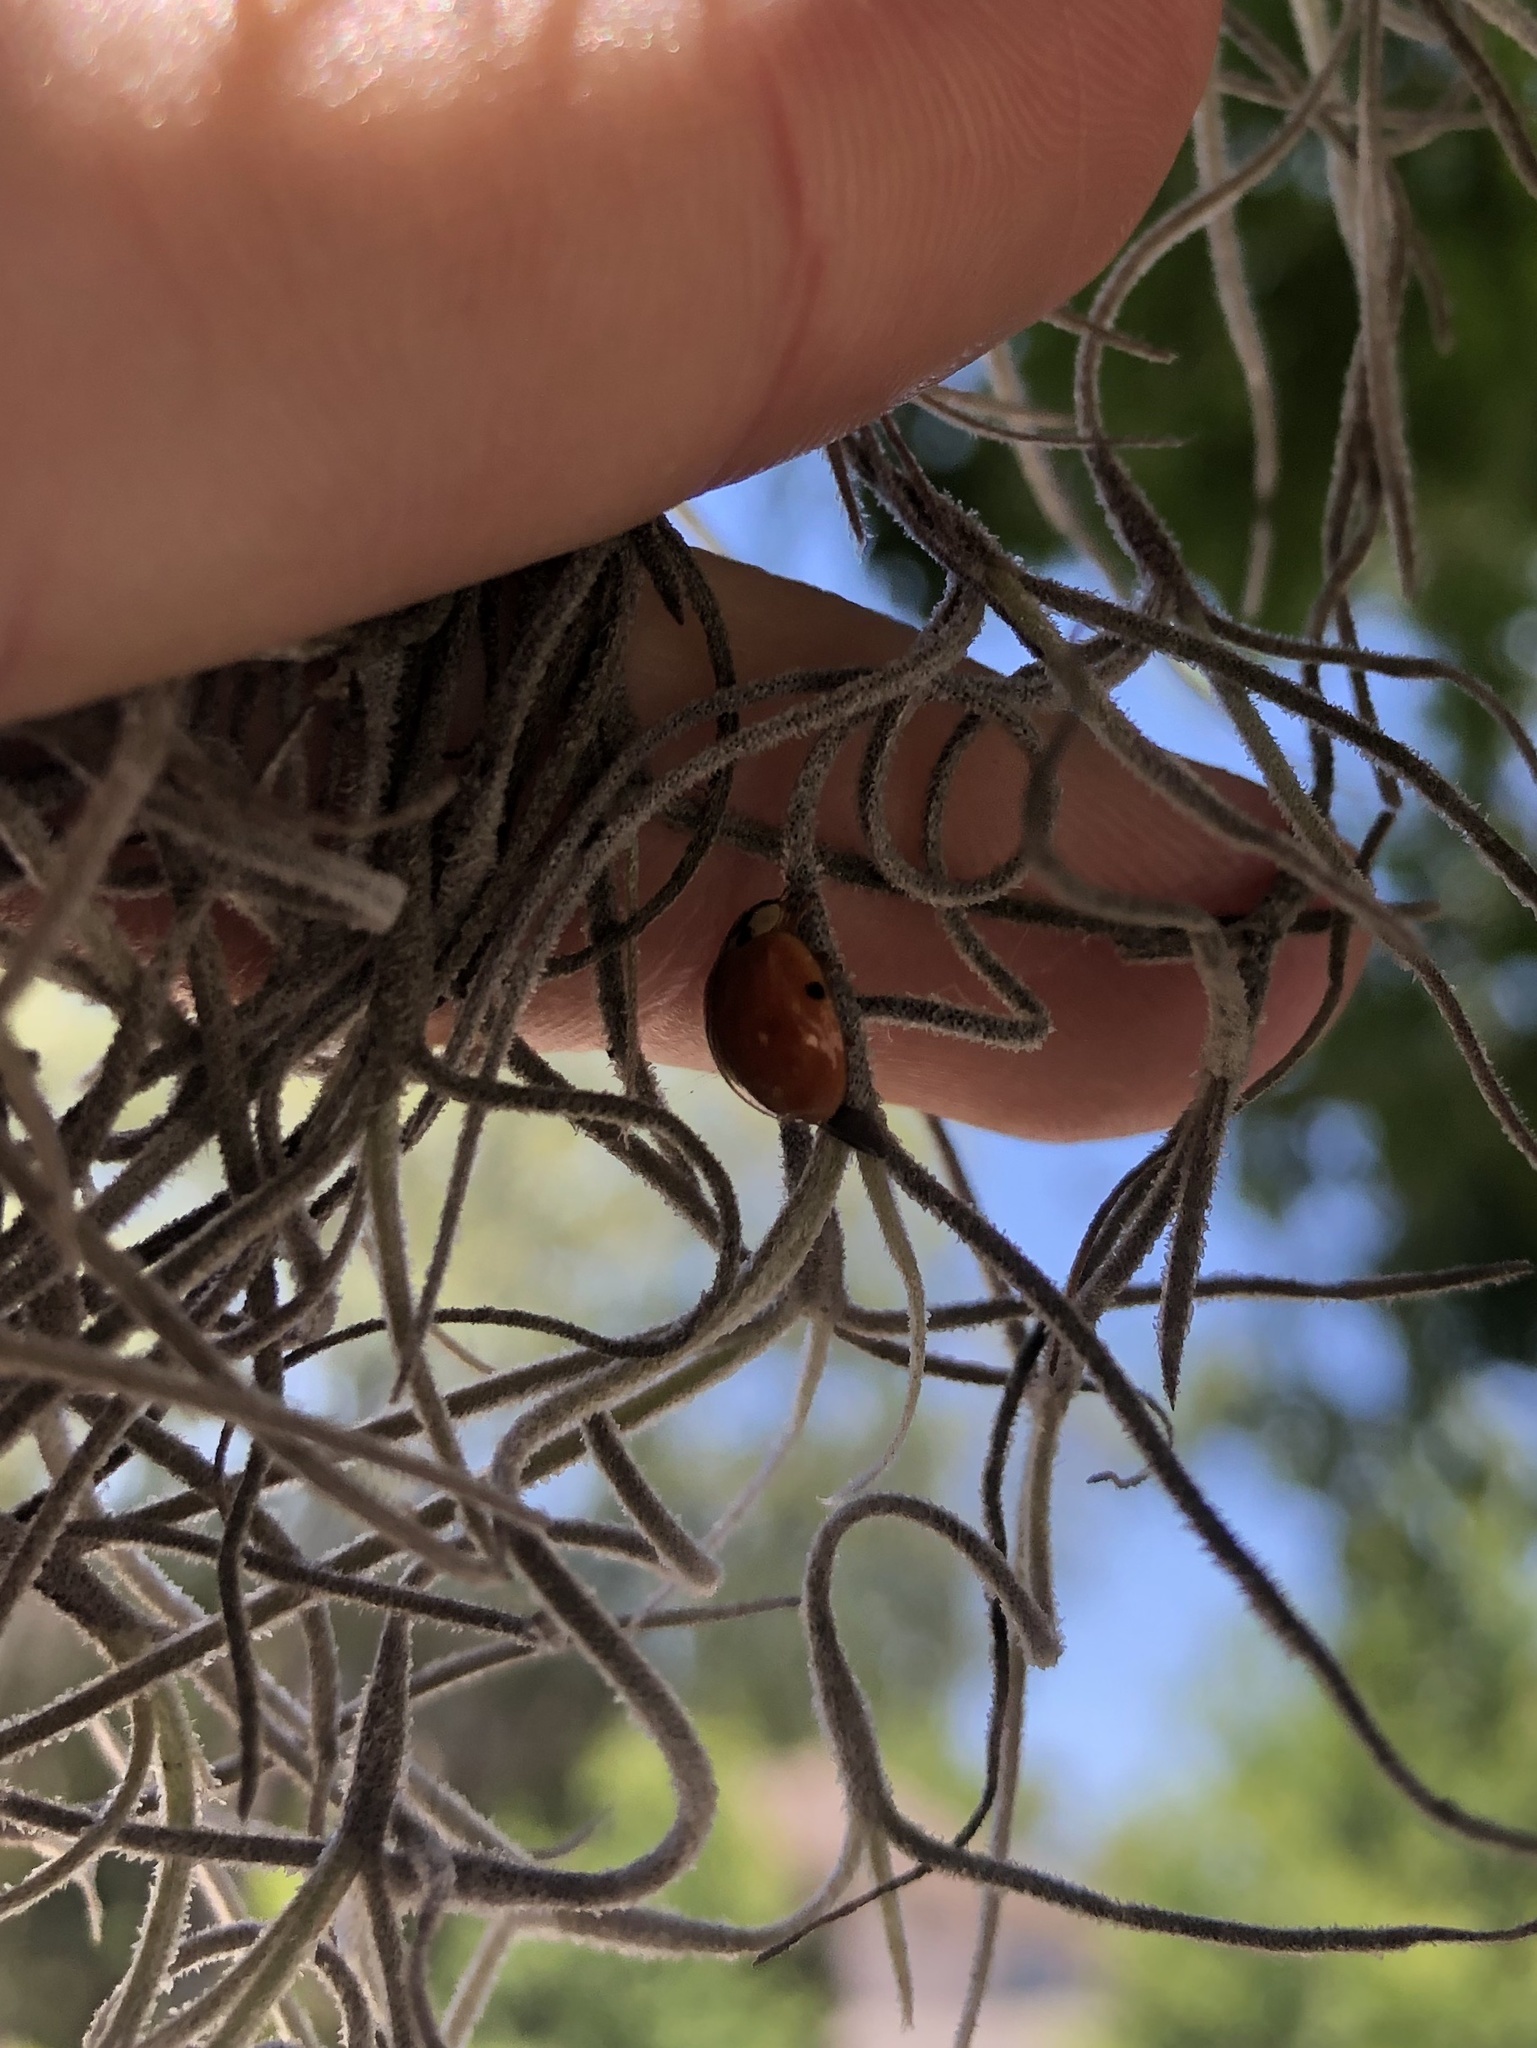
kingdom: Animalia
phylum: Arthropoda
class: Insecta
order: Coleoptera
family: Coccinellidae
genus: Harmonia
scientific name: Harmonia axyridis
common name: Harlequin ladybird
